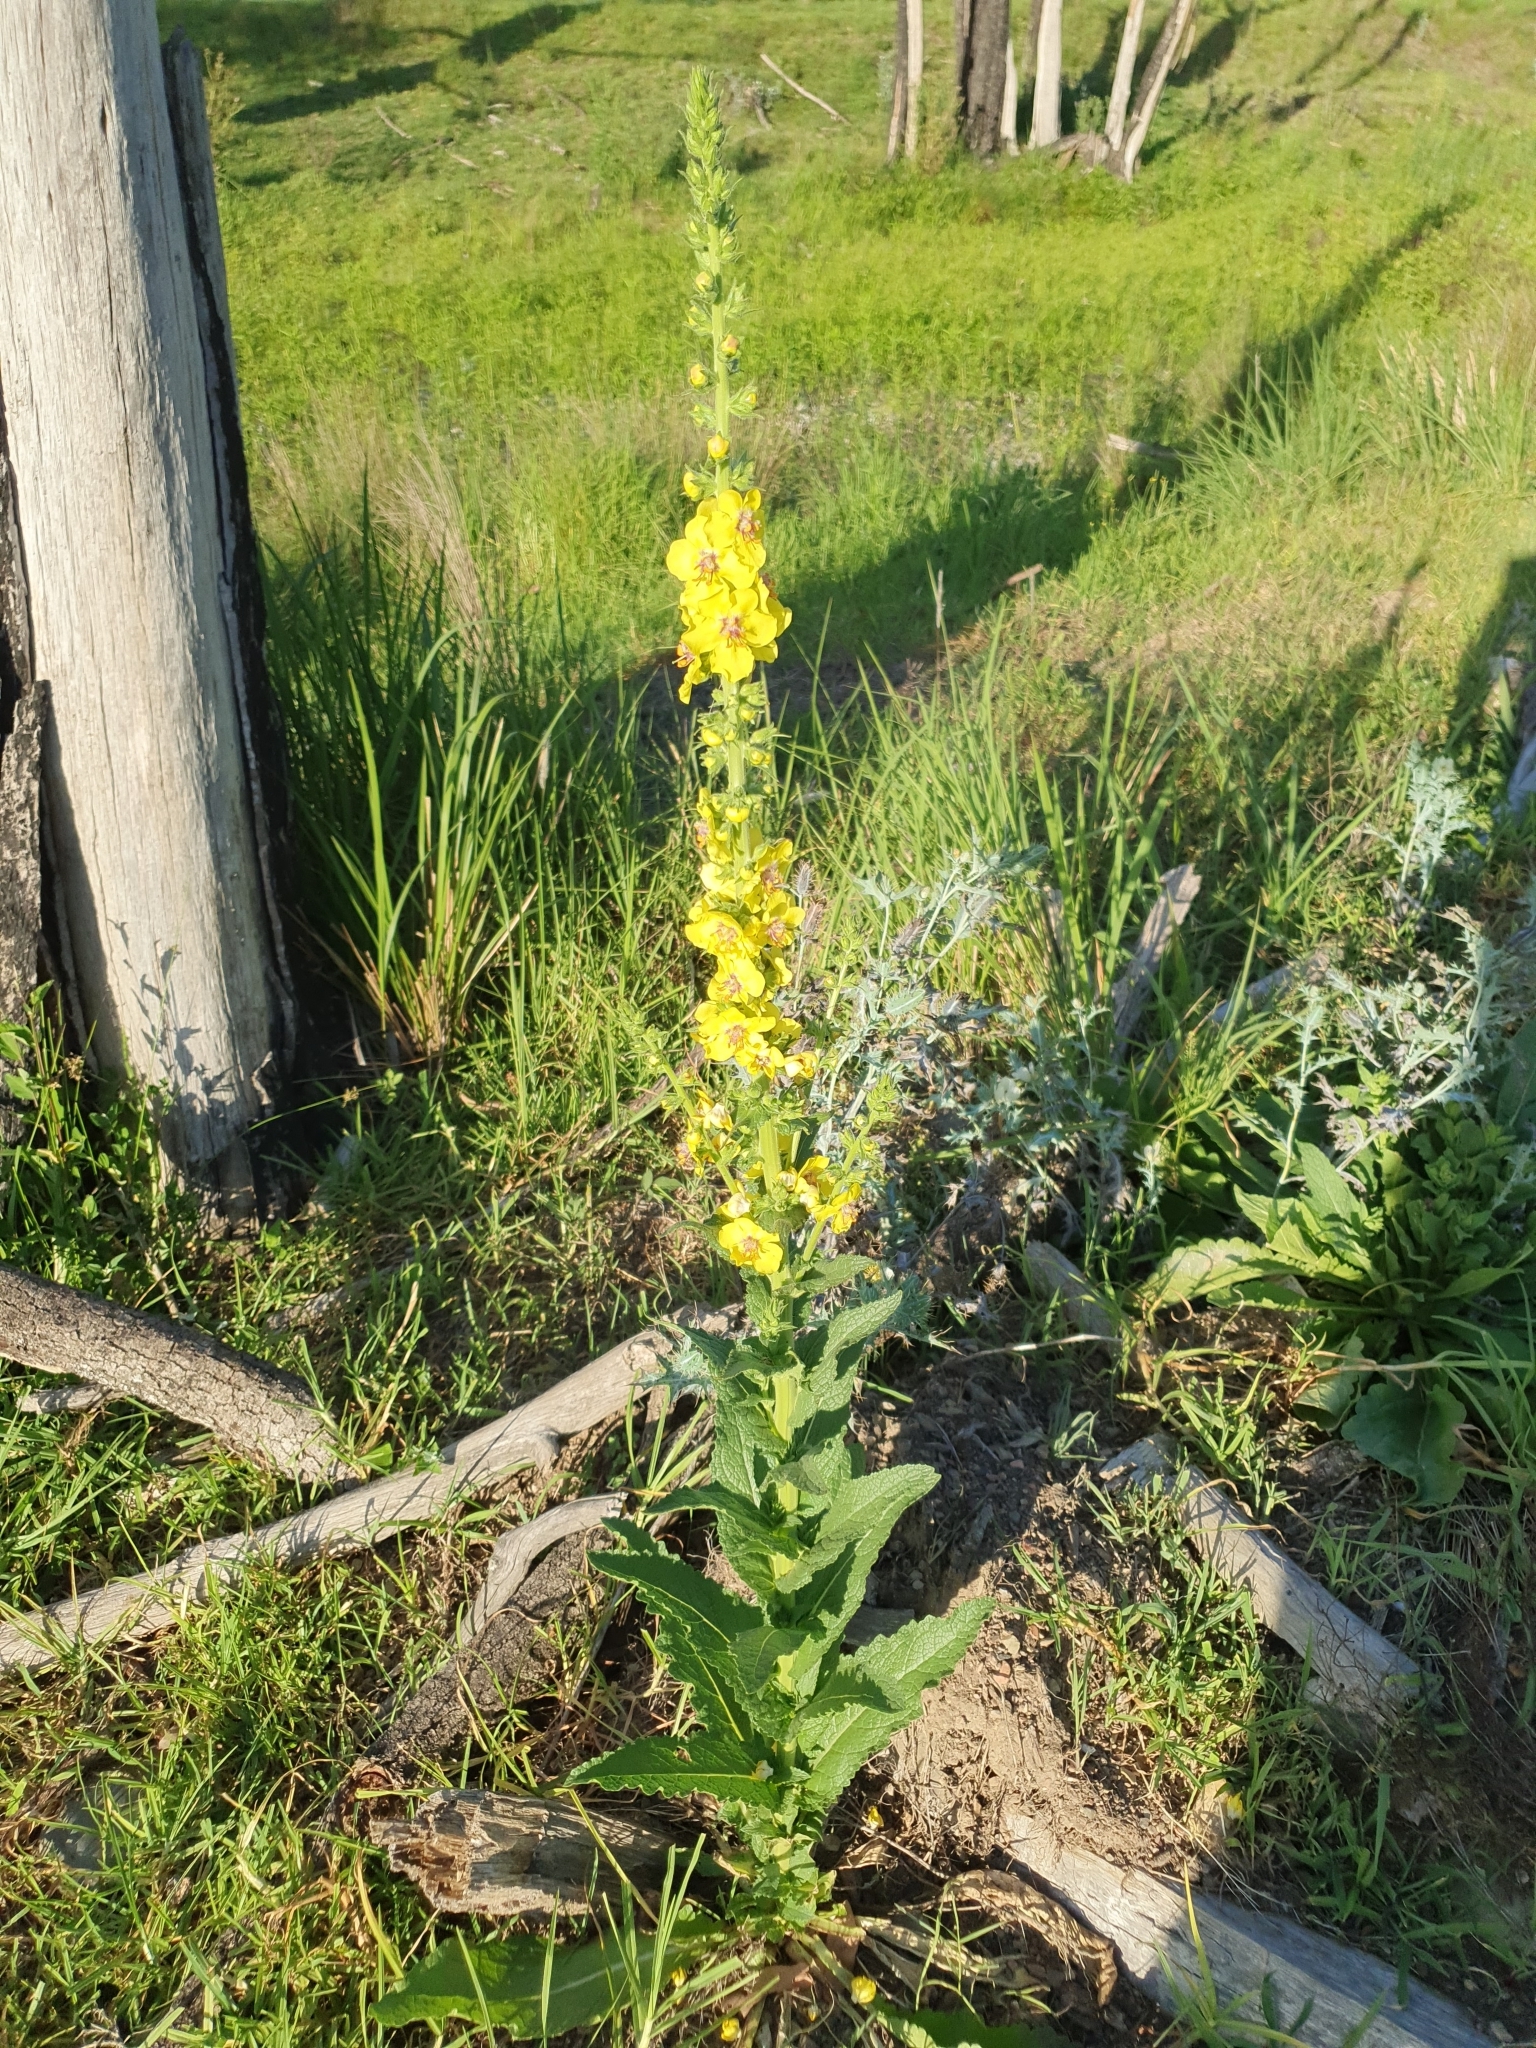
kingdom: Plantae
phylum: Tracheophyta
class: Magnoliopsida
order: Lamiales
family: Scrophulariaceae
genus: Verbascum
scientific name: Verbascum virgatum
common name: Twiggy mullein
